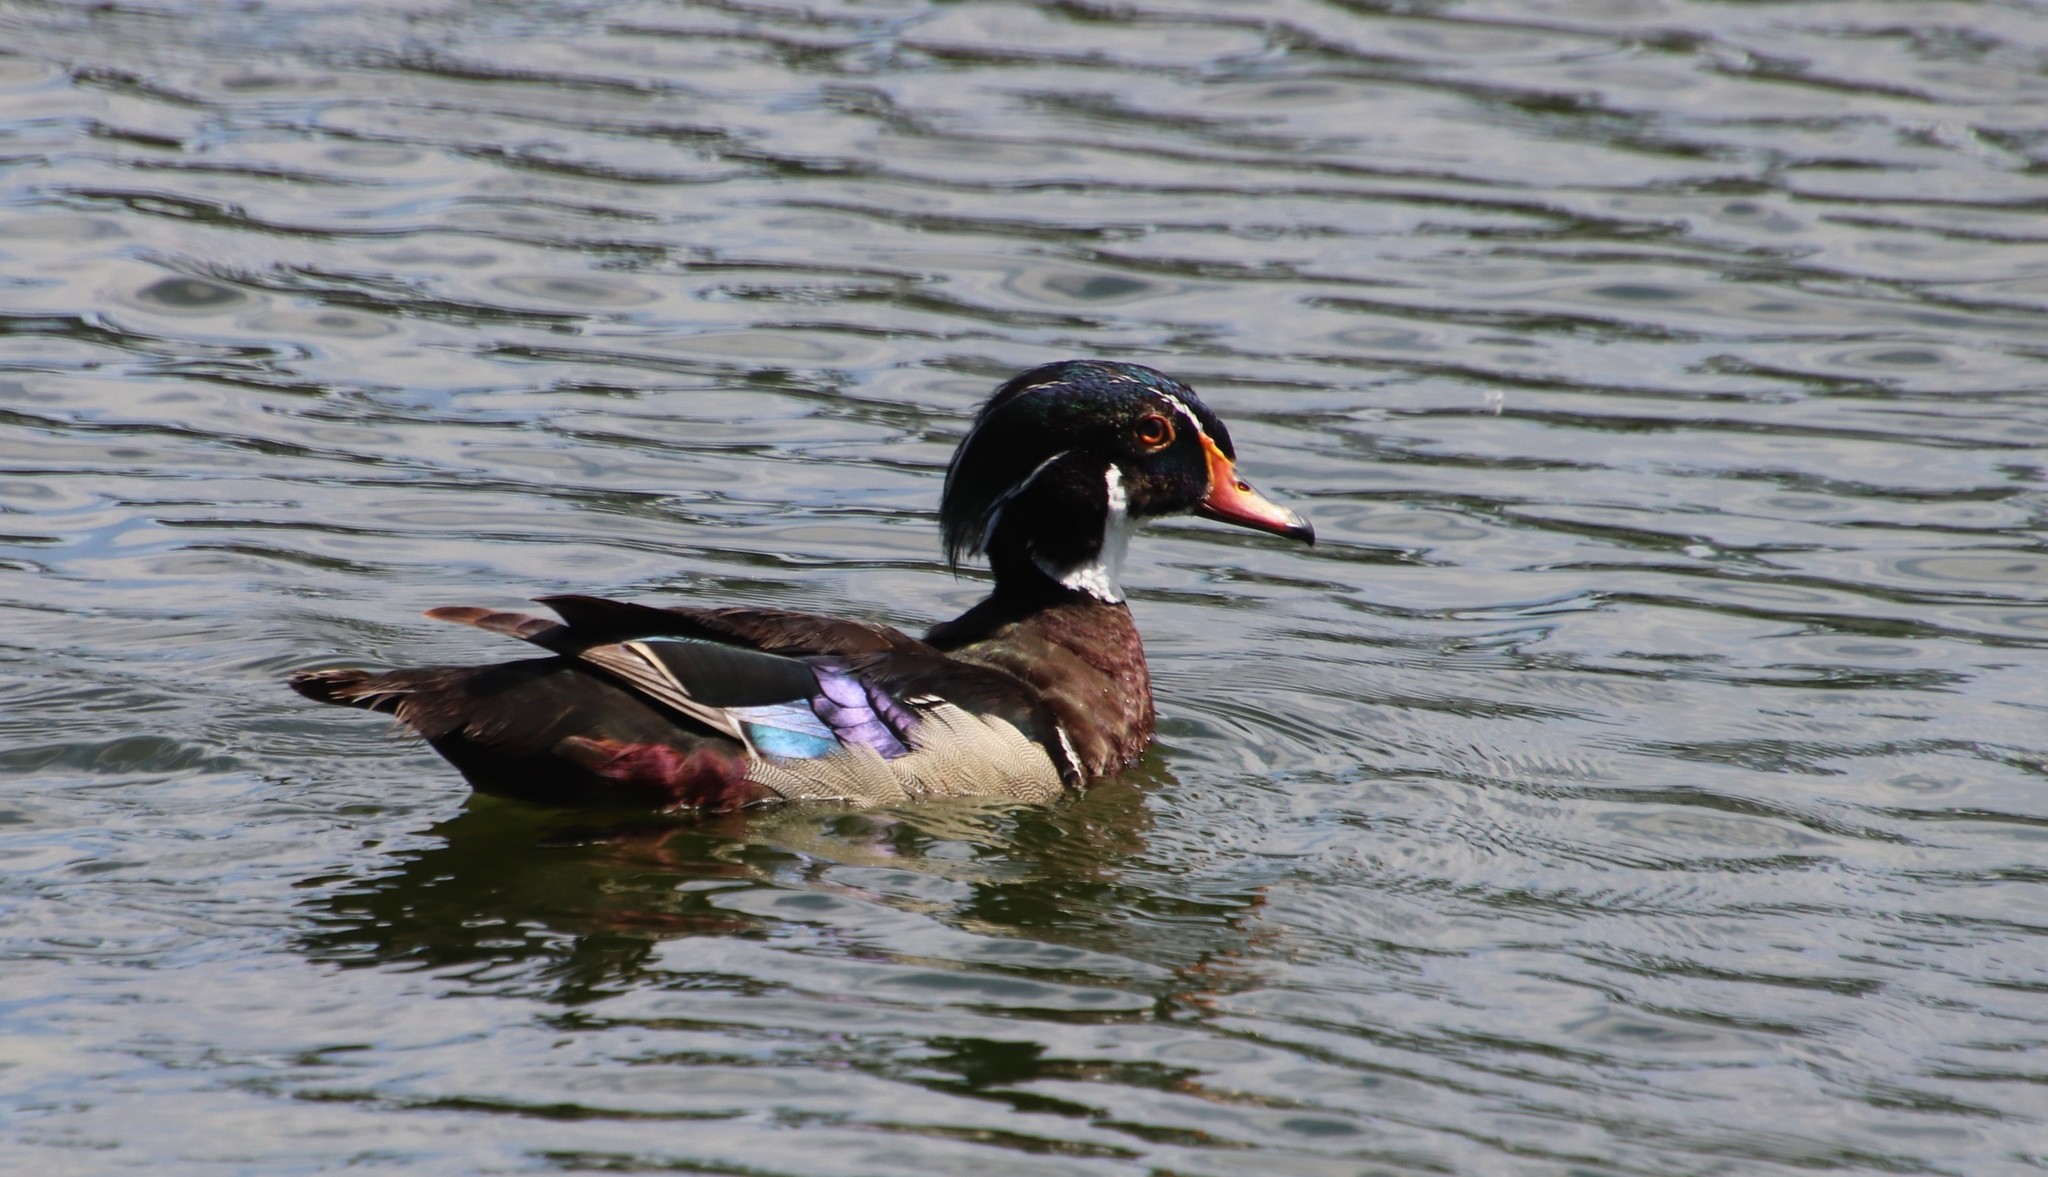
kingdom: Animalia
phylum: Chordata
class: Aves
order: Anseriformes
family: Anatidae
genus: Aix
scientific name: Aix sponsa
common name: Wood duck
